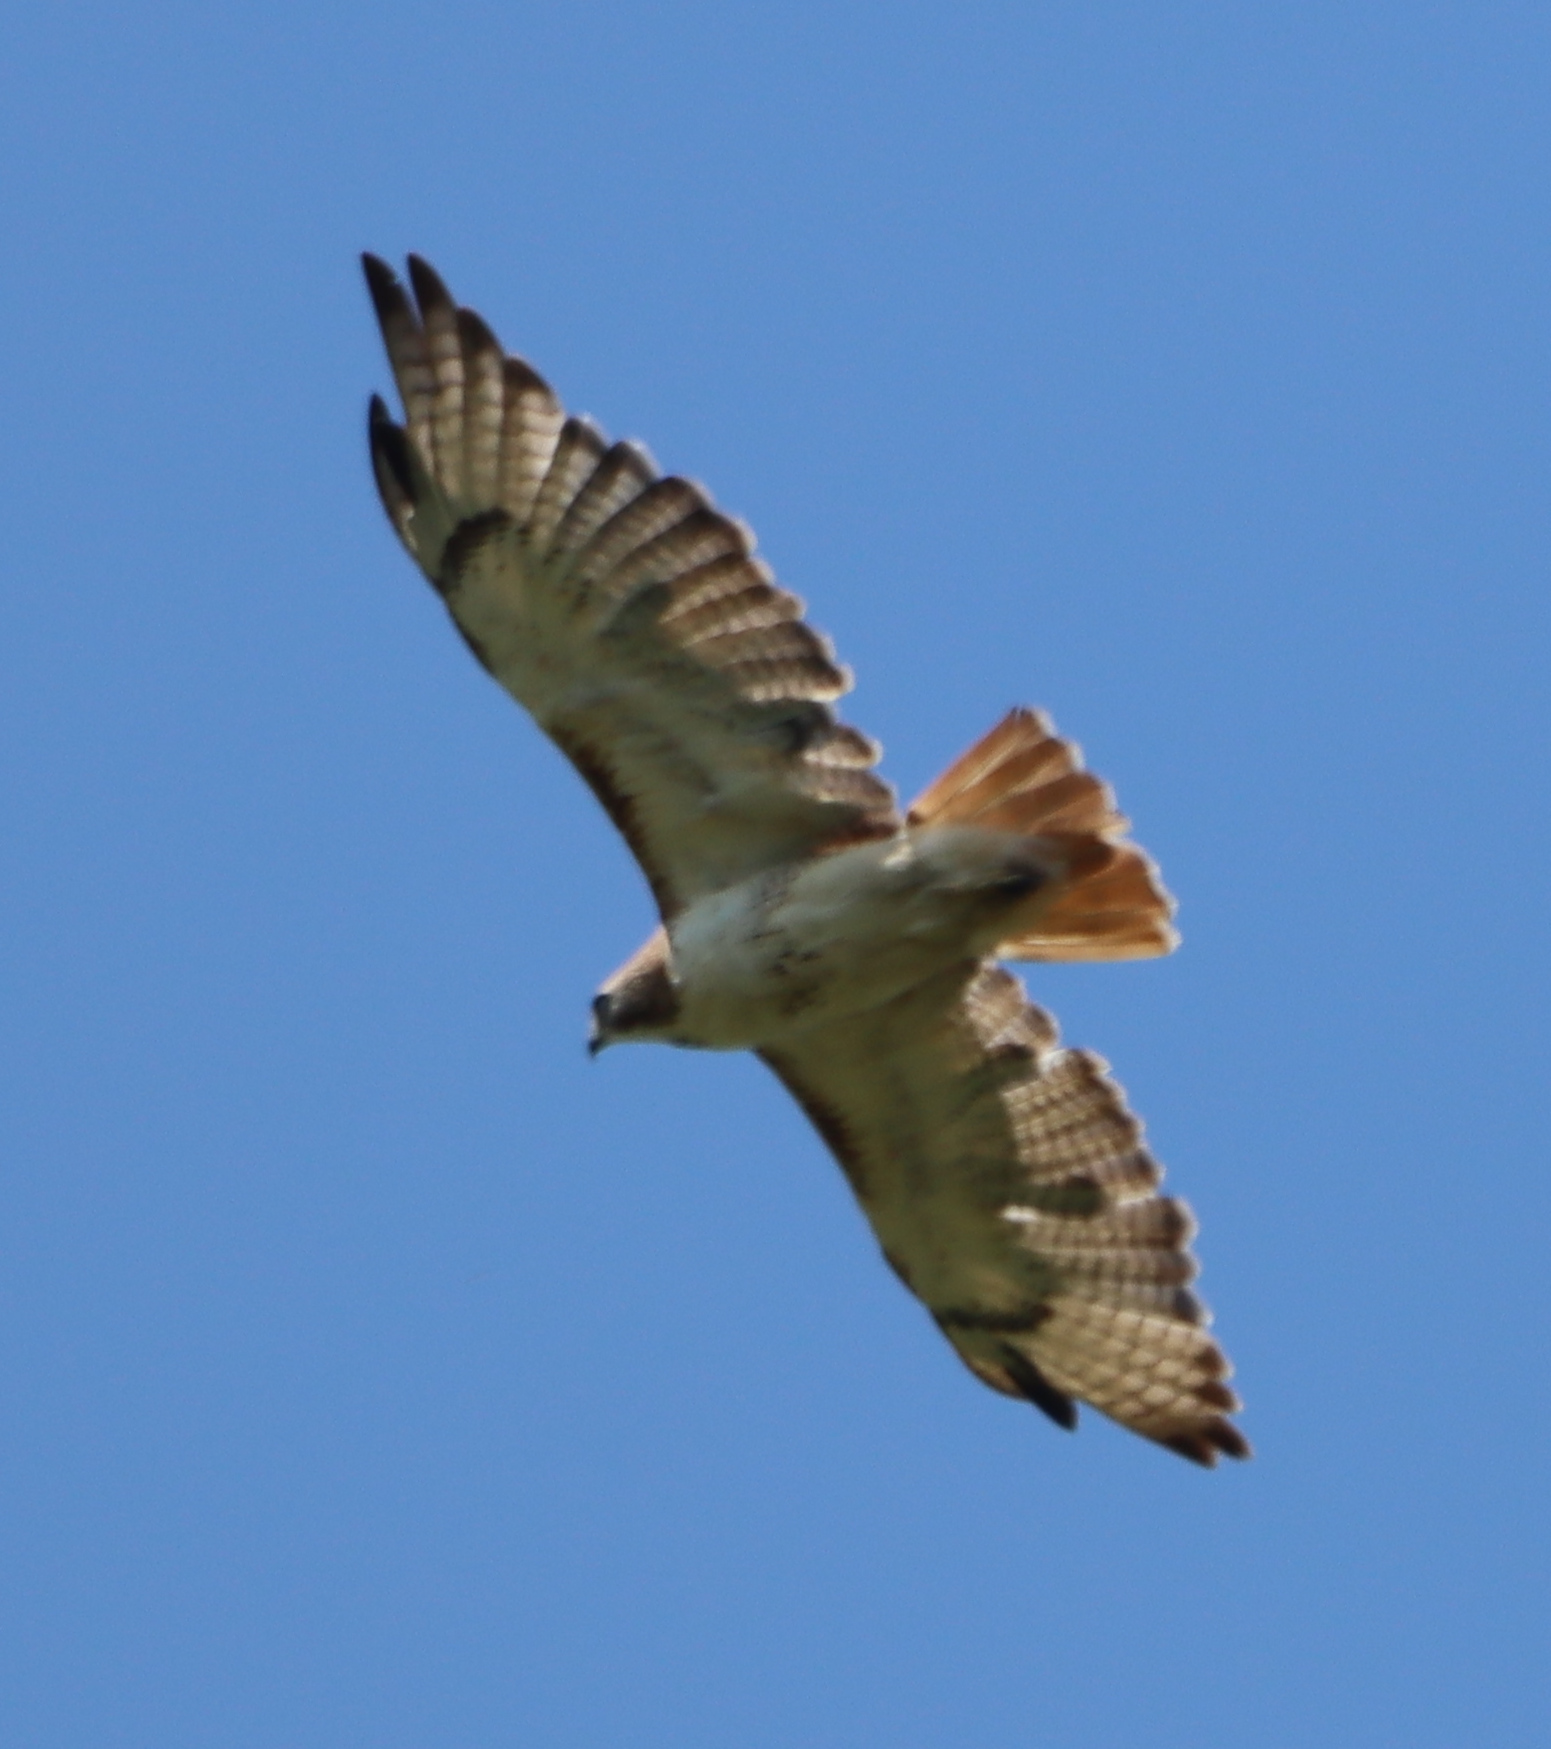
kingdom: Animalia
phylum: Chordata
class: Aves
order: Accipitriformes
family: Accipitridae
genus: Buteo
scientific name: Buteo jamaicensis
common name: Red-tailed hawk
